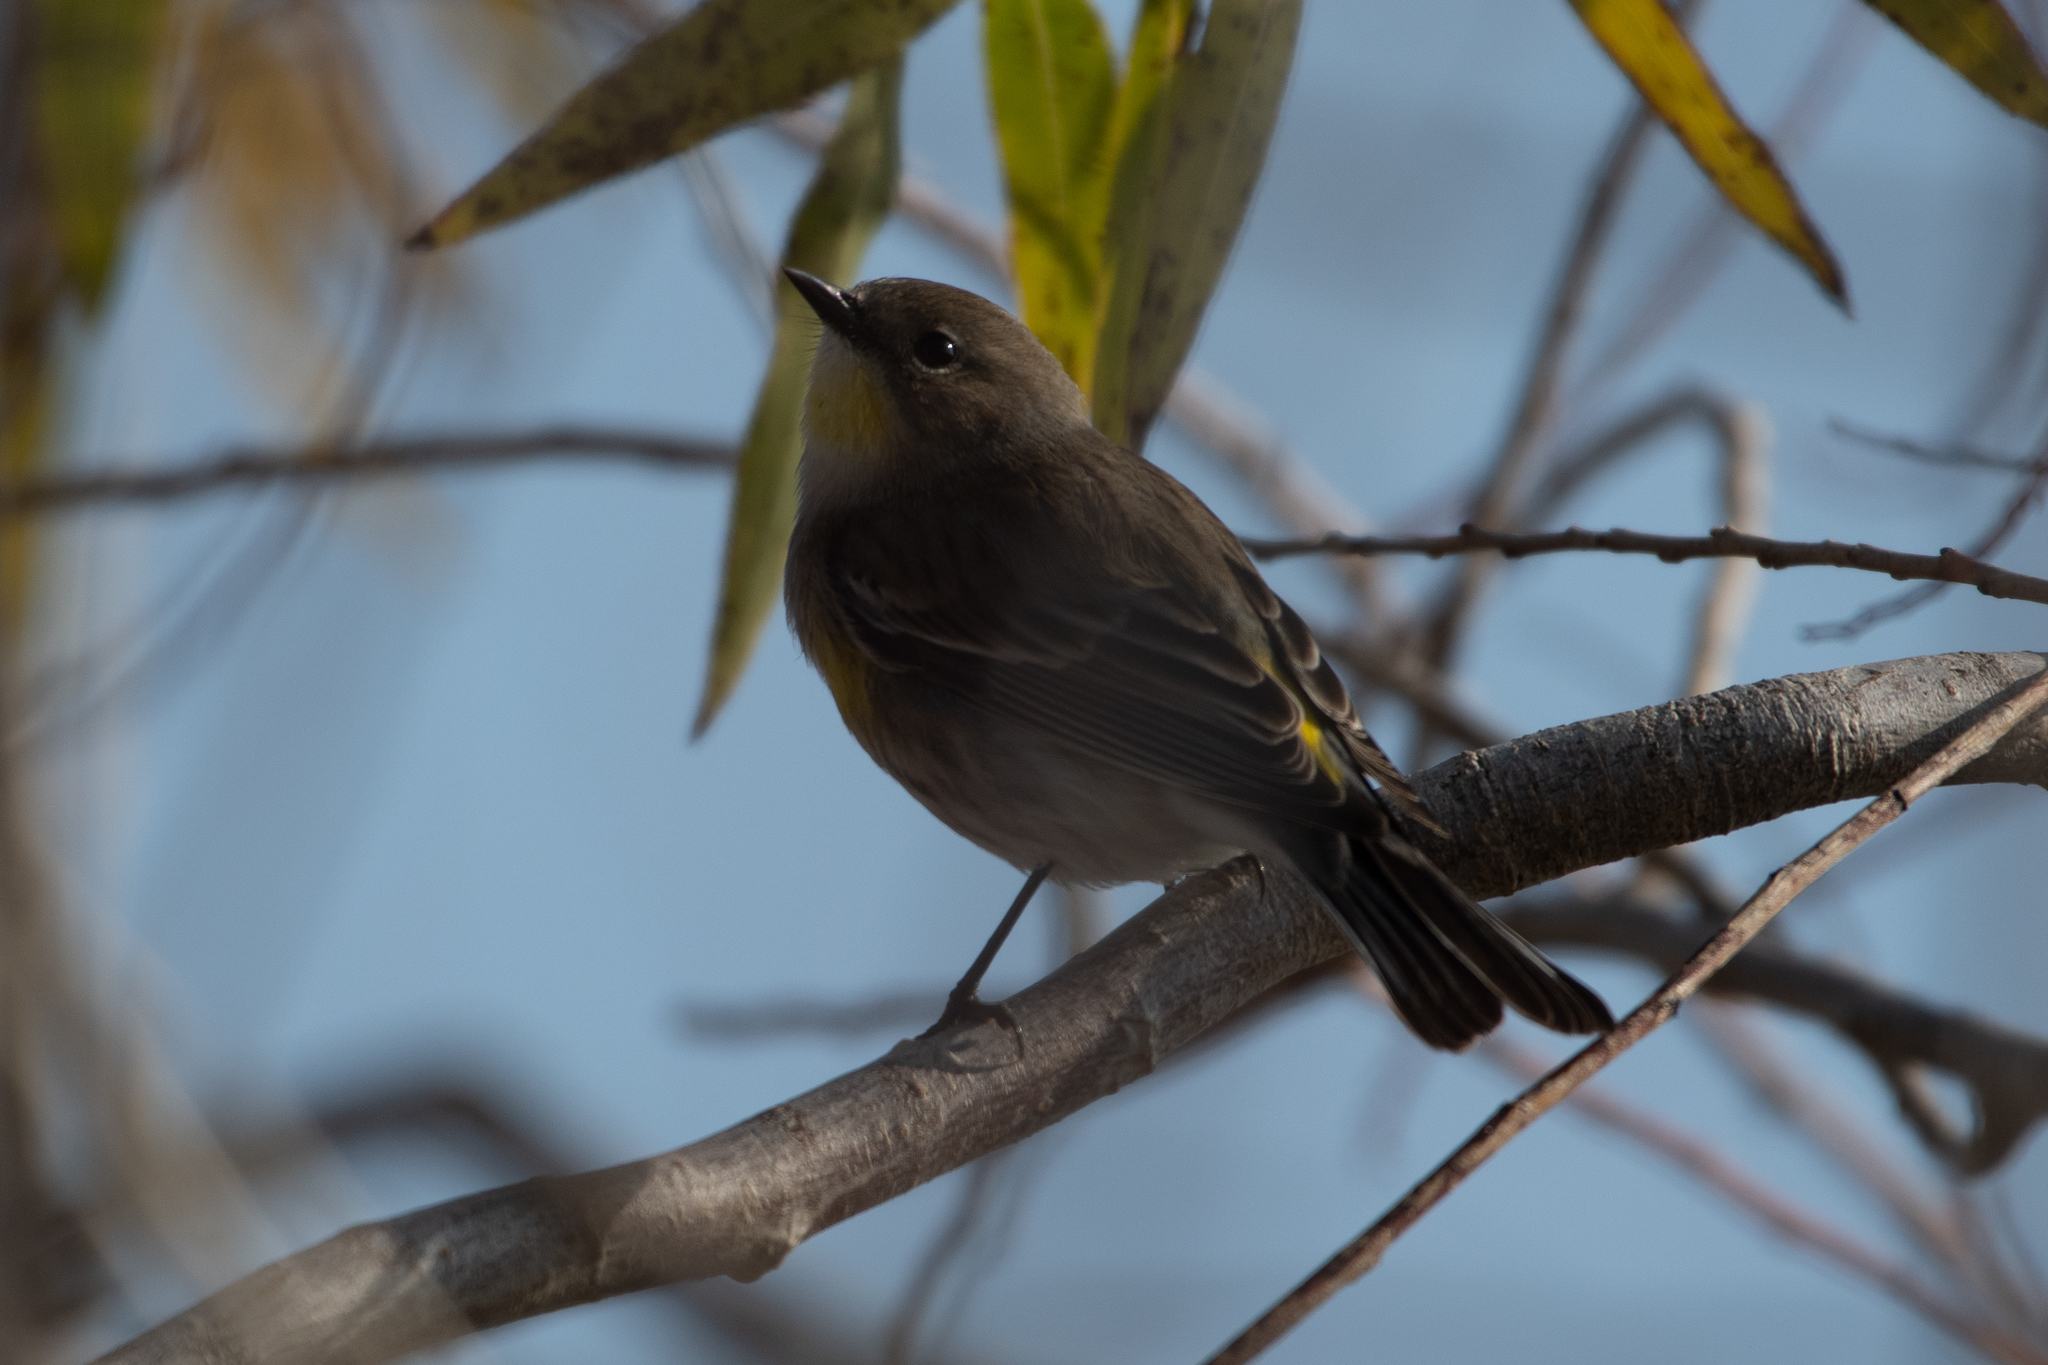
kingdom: Animalia
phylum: Chordata
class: Aves
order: Passeriformes
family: Parulidae
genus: Setophaga
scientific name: Setophaga coronata
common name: Myrtle warbler
